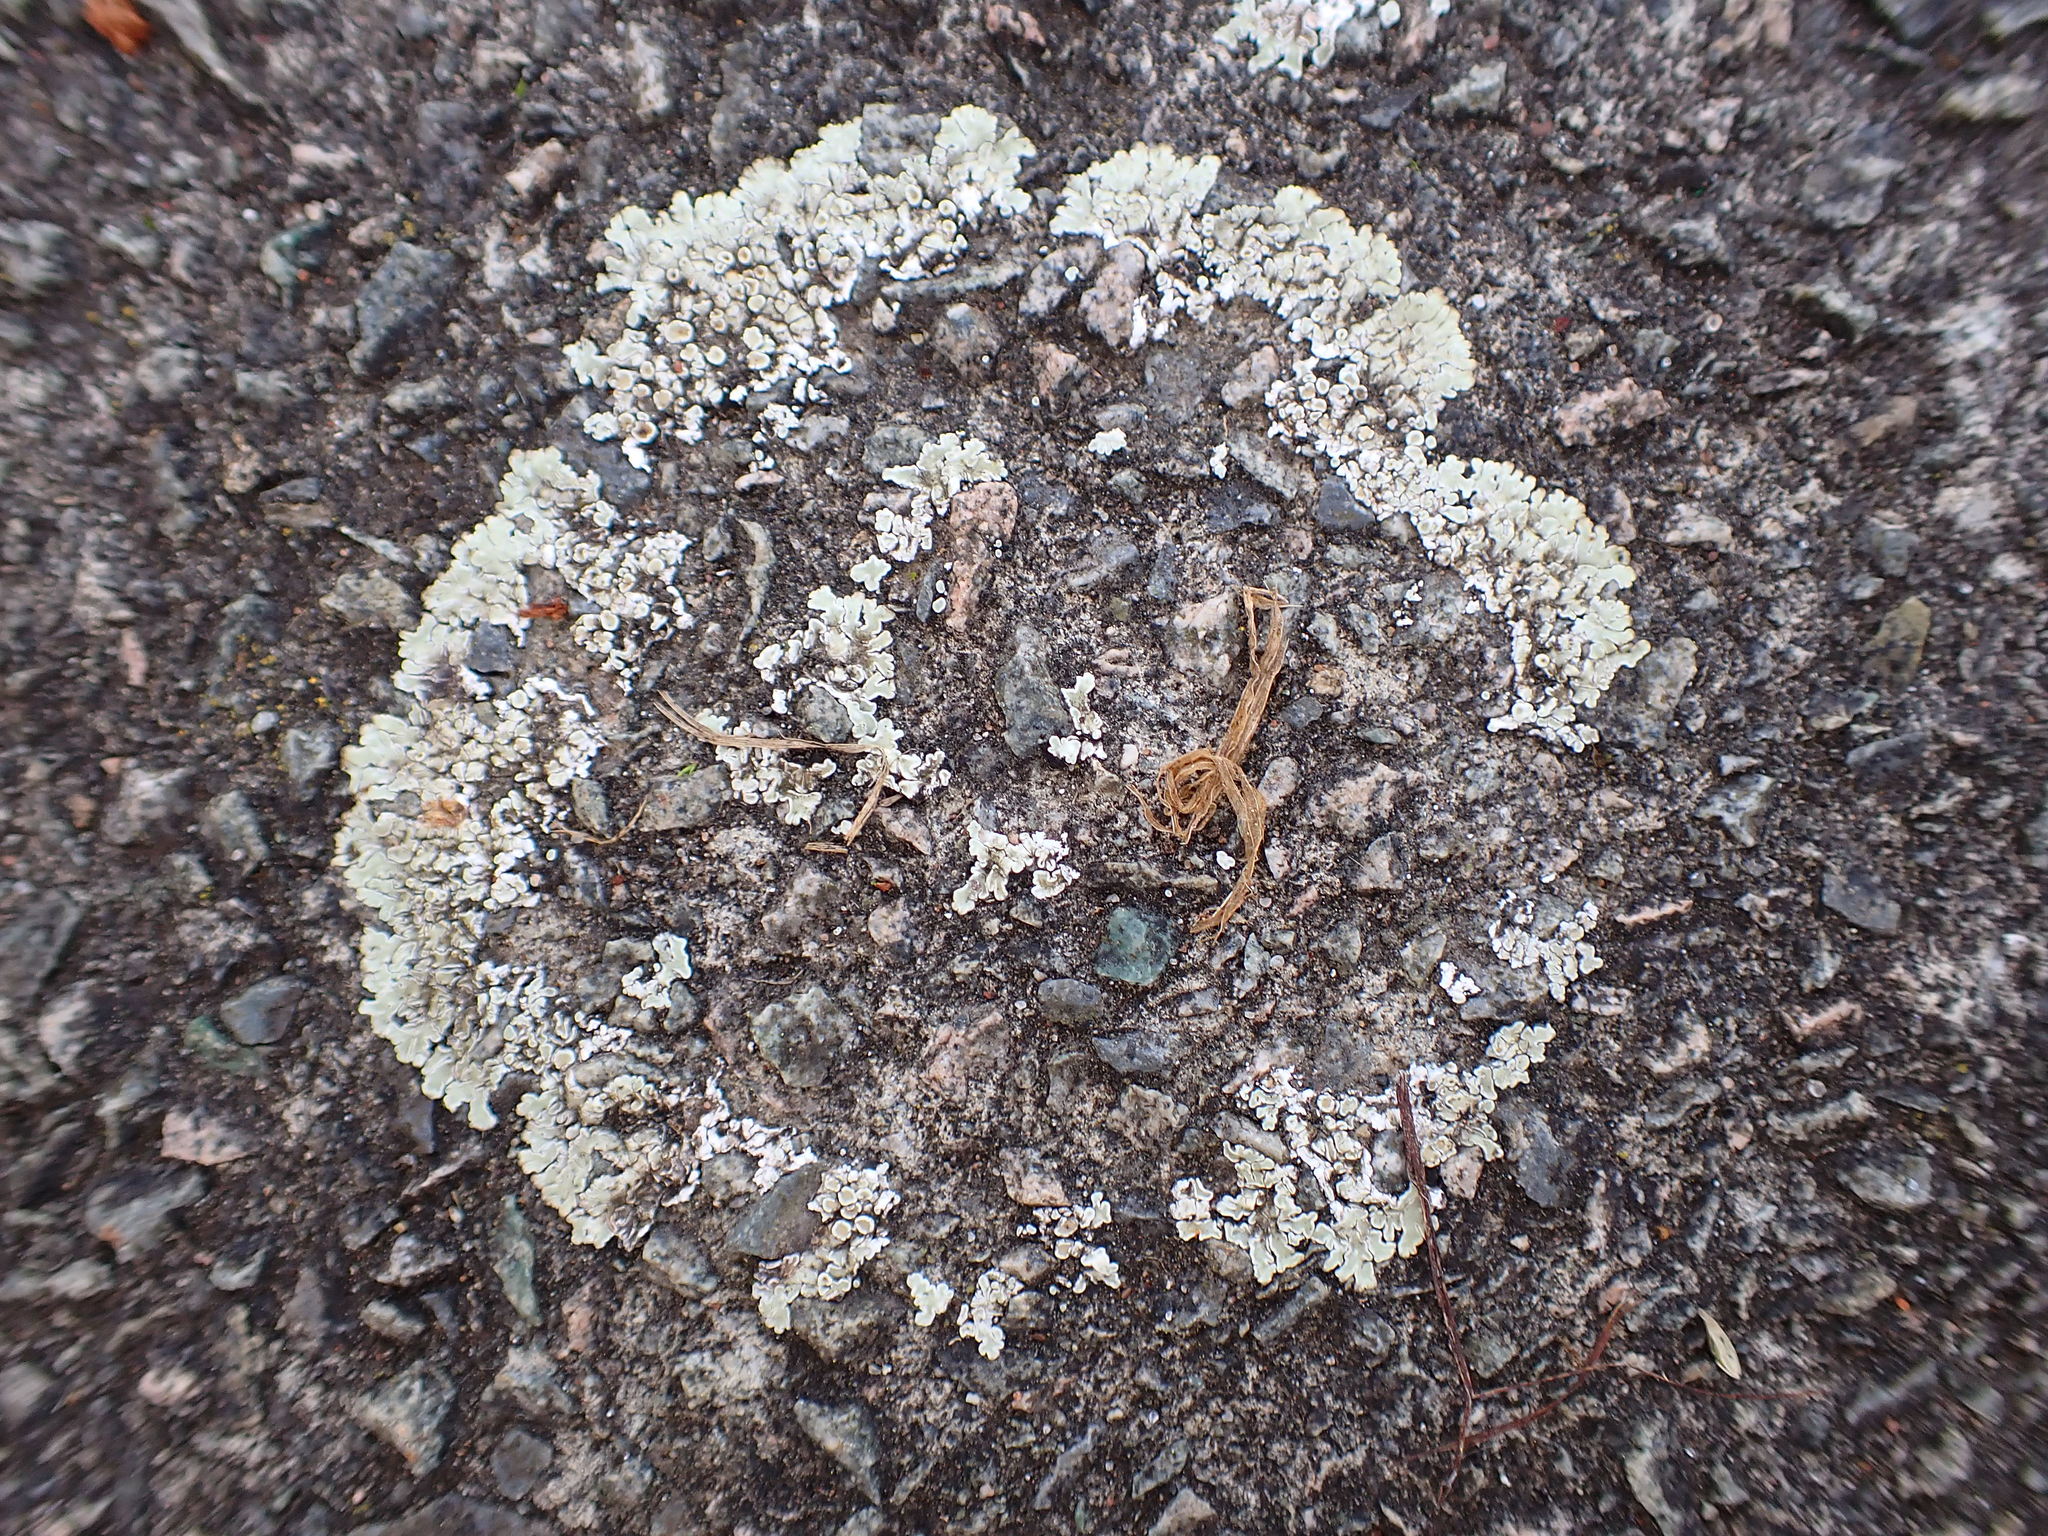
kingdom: Fungi
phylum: Ascomycota
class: Lecanoromycetes
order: Lecanorales
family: Lecanoraceae
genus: Protoparmeliopsis
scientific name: Protoparmeliopsis muralis
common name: Stonewall rim lichen
